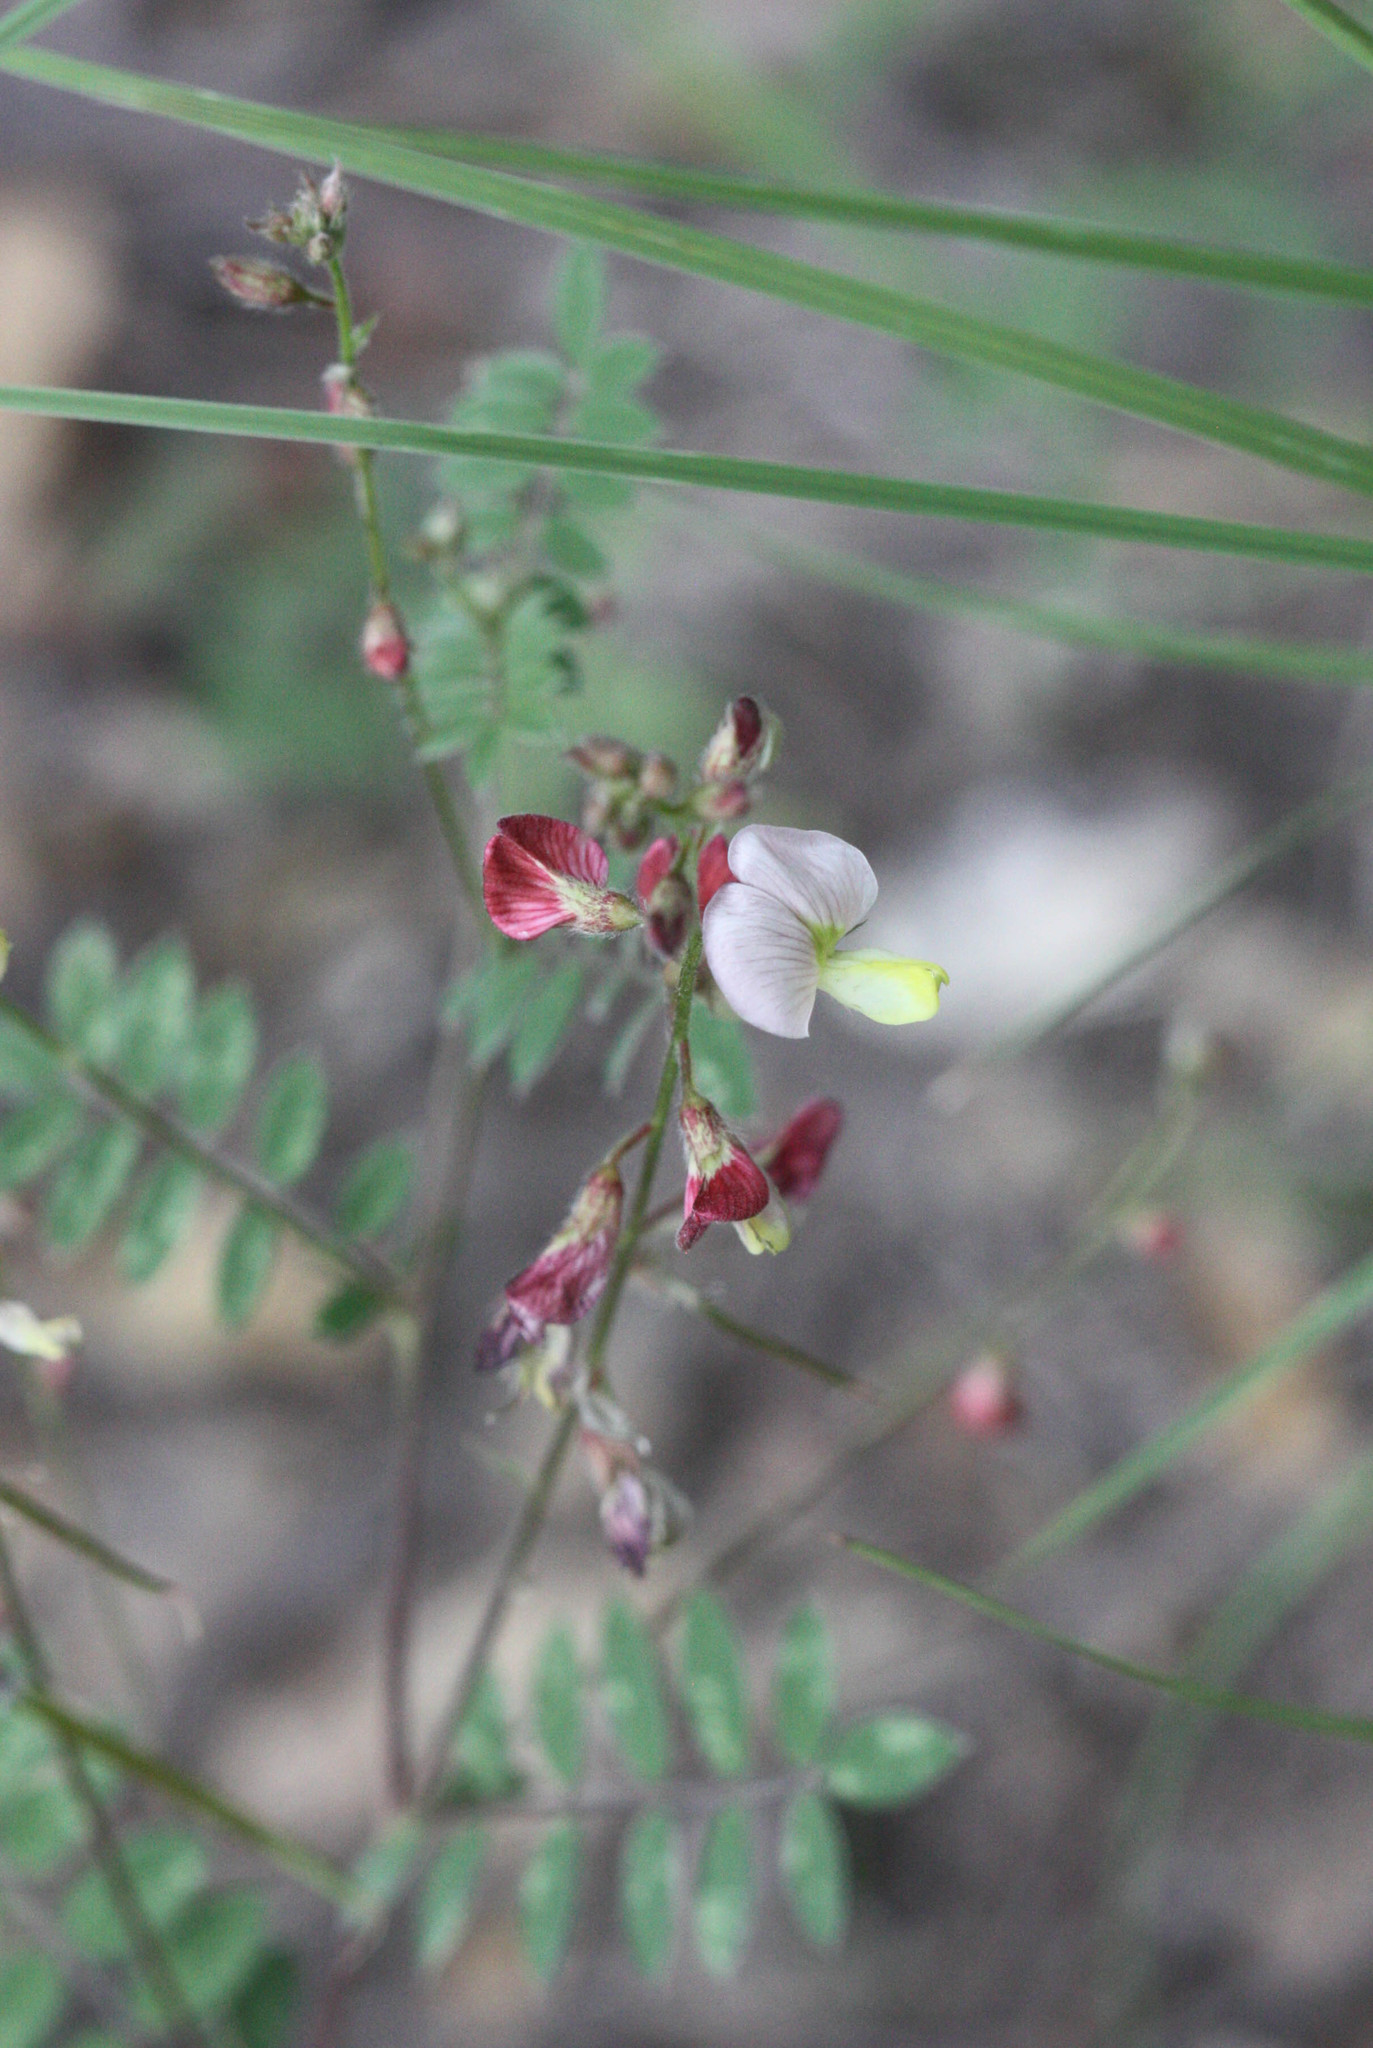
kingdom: Plantae
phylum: Tracheophyta
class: Magnoliopsida
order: Fabales
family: Fabaceae
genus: Coursetia
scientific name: Coursetia caribaea
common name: Anil falso
